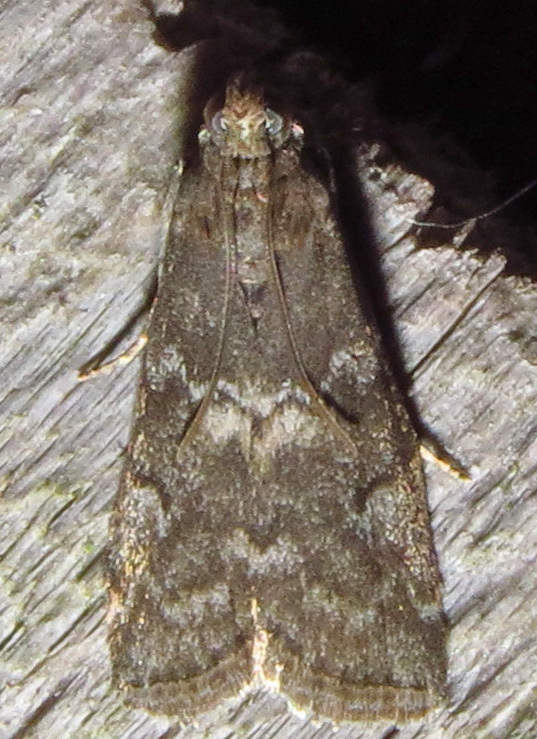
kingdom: Animalia
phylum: Arthropoda
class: Insecta
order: Lepidoptera
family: Pyralidae
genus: Salebriaria
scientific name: Salebriaria engeli
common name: Engel's salebriaria moth
